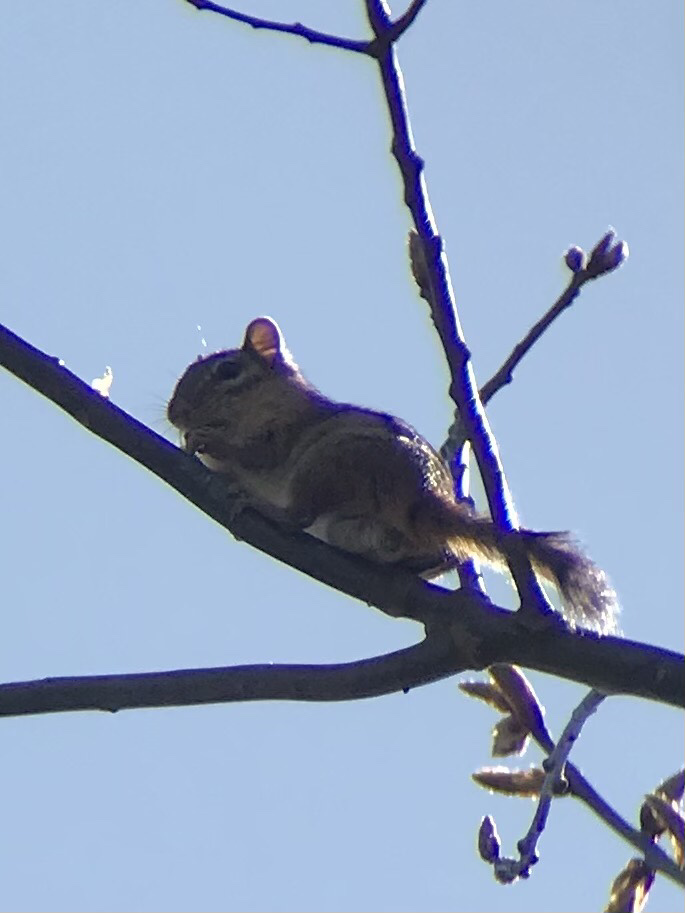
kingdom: Animalia
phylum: Chordata
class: Mammalia
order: Rodentia
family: Sciuridae
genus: Tamias
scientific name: Tamias striatus
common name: Eastern chipmunk
